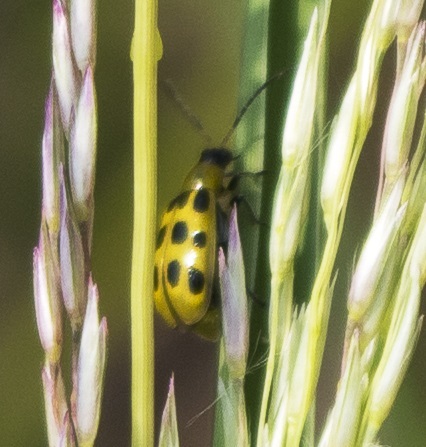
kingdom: Animalia
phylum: Arthropoda
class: Insecta
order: Coleoptera
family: Chrysomelidae
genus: Diabrotica
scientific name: Diabrotica undecimpunctata
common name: Spotted cucumber beetle
